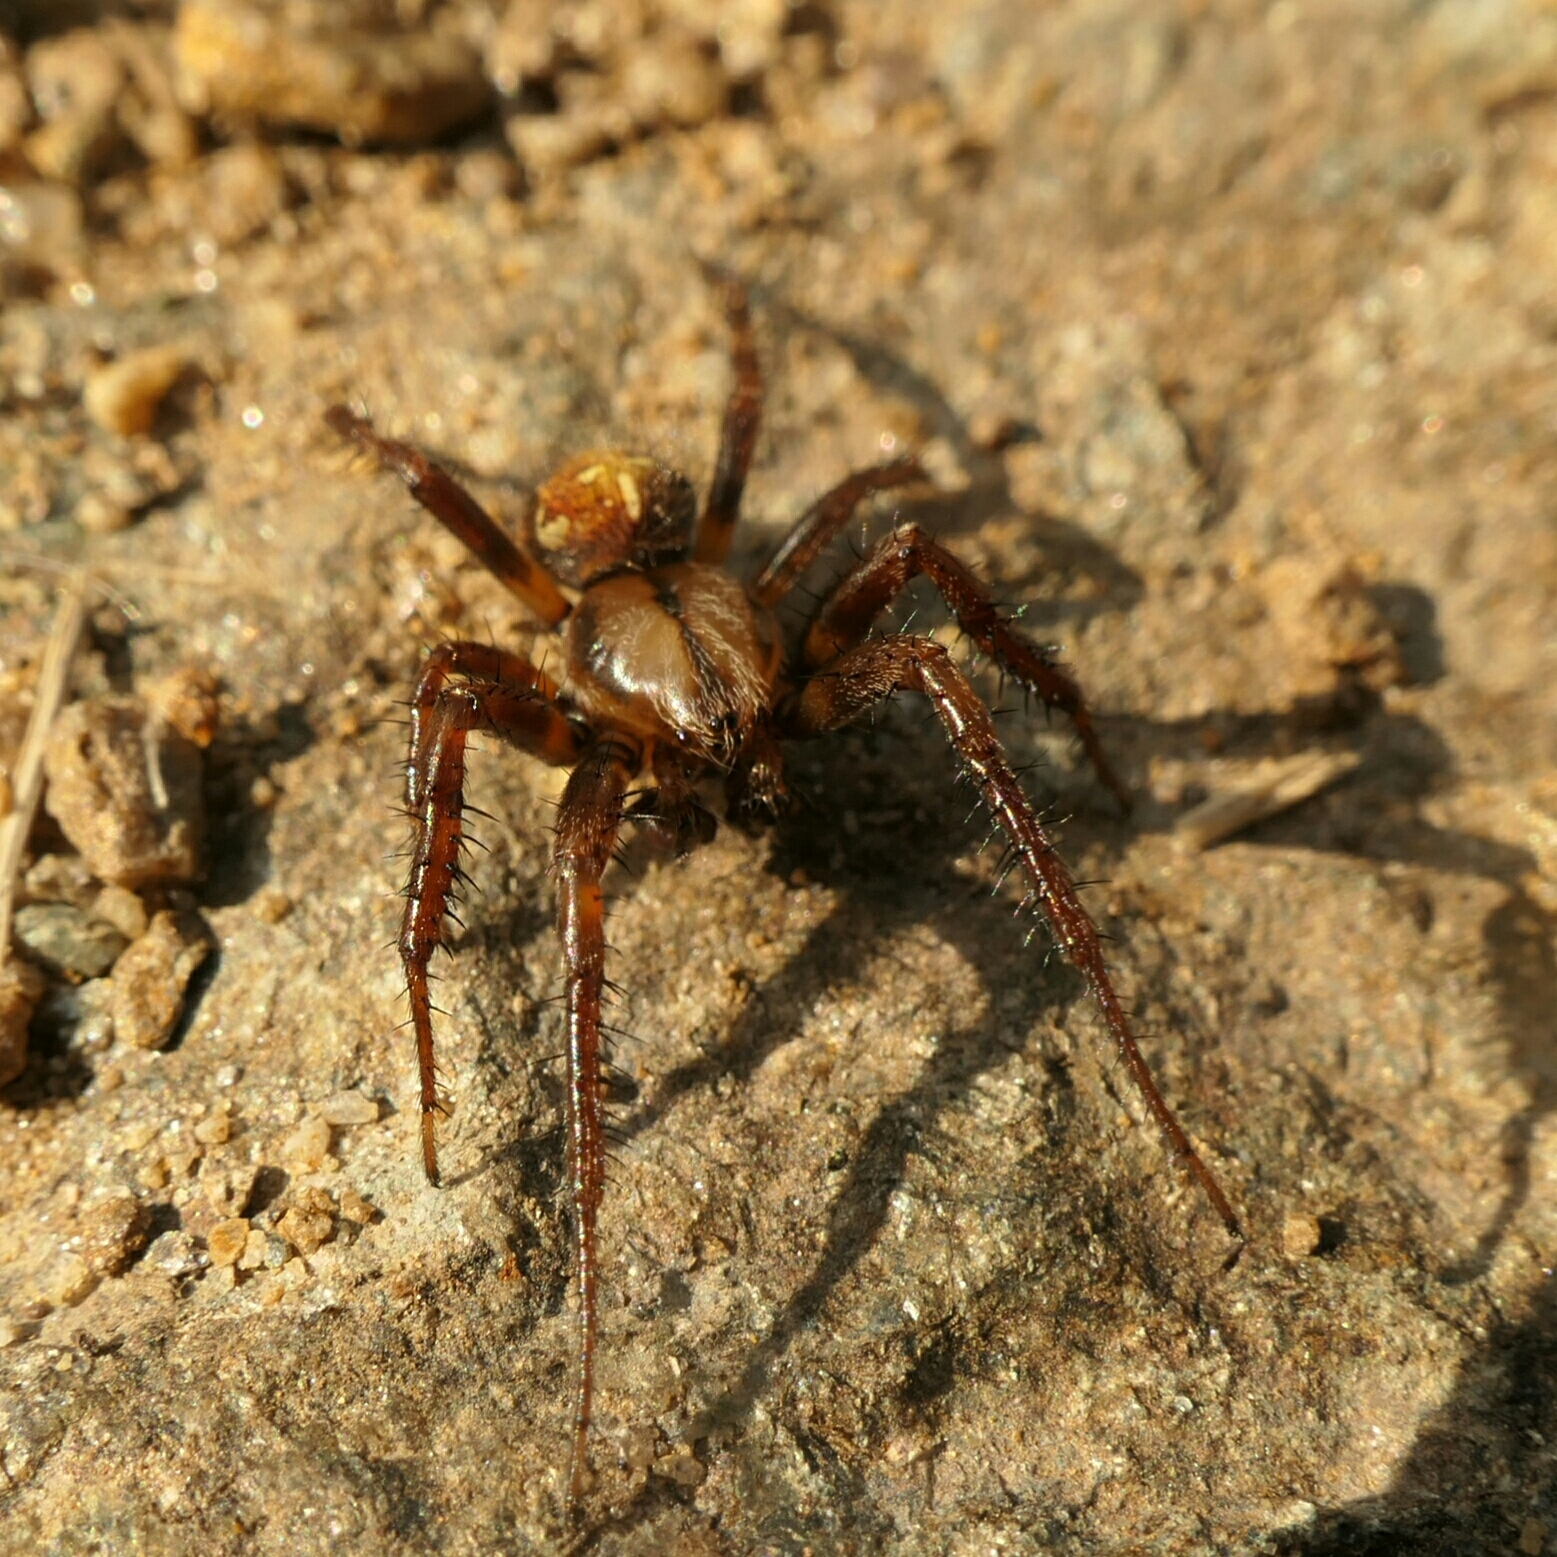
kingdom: Animalia
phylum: Arthropoda
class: Arachnida
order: Araneae
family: Araneidae
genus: Araneus
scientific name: Araneus quadratus
